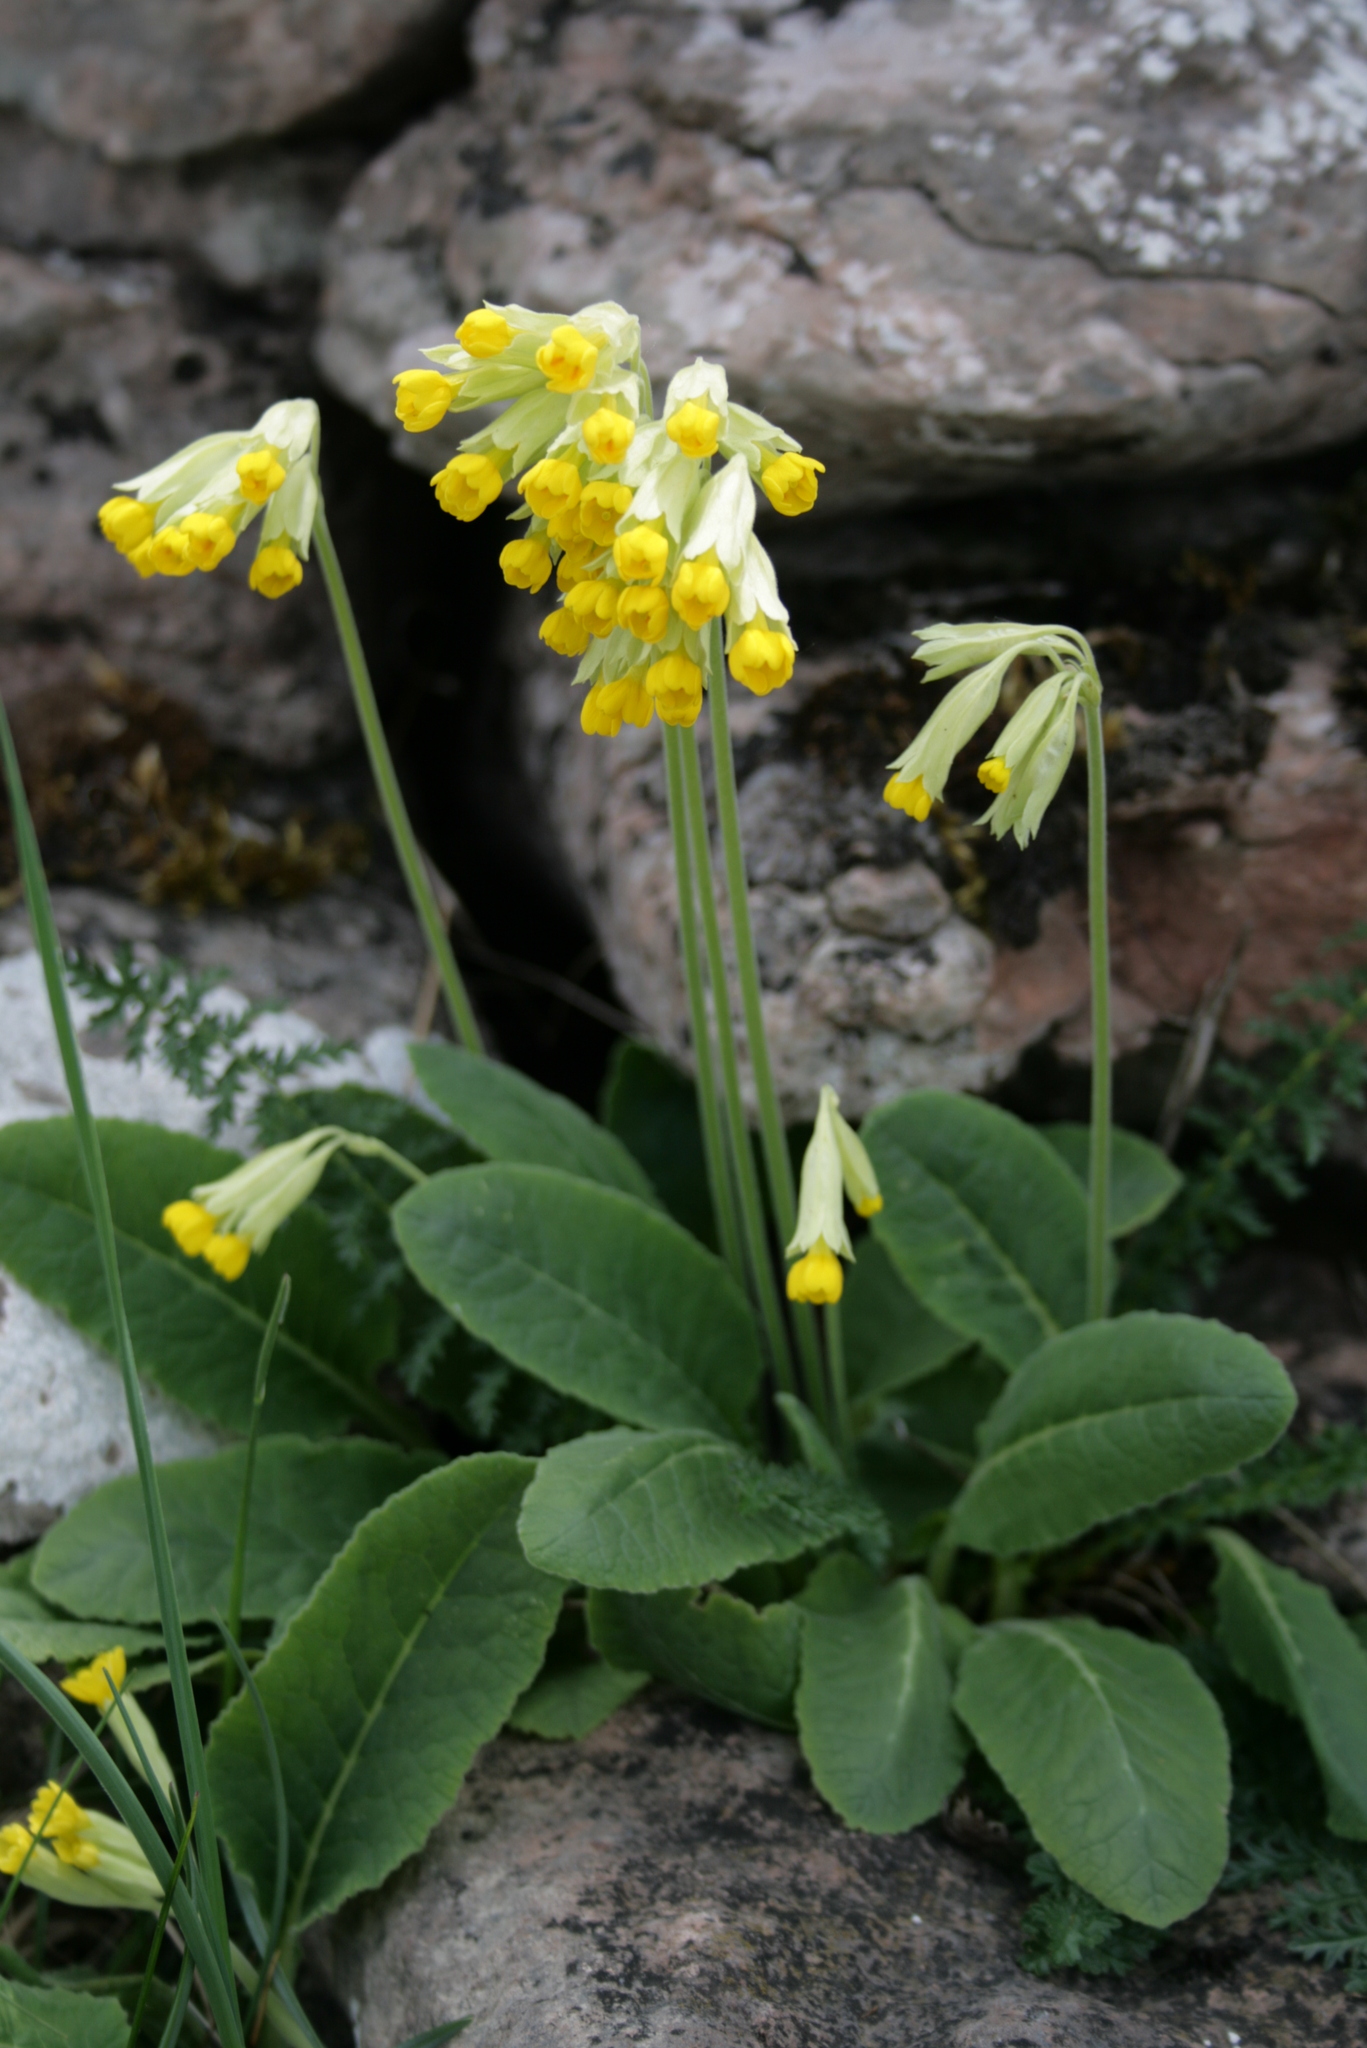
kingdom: Plantae
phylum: Tracheophyta
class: Magnoliopsida
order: Ericales
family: Primulaceae
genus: Primula
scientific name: Primula veris
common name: Cowslip
